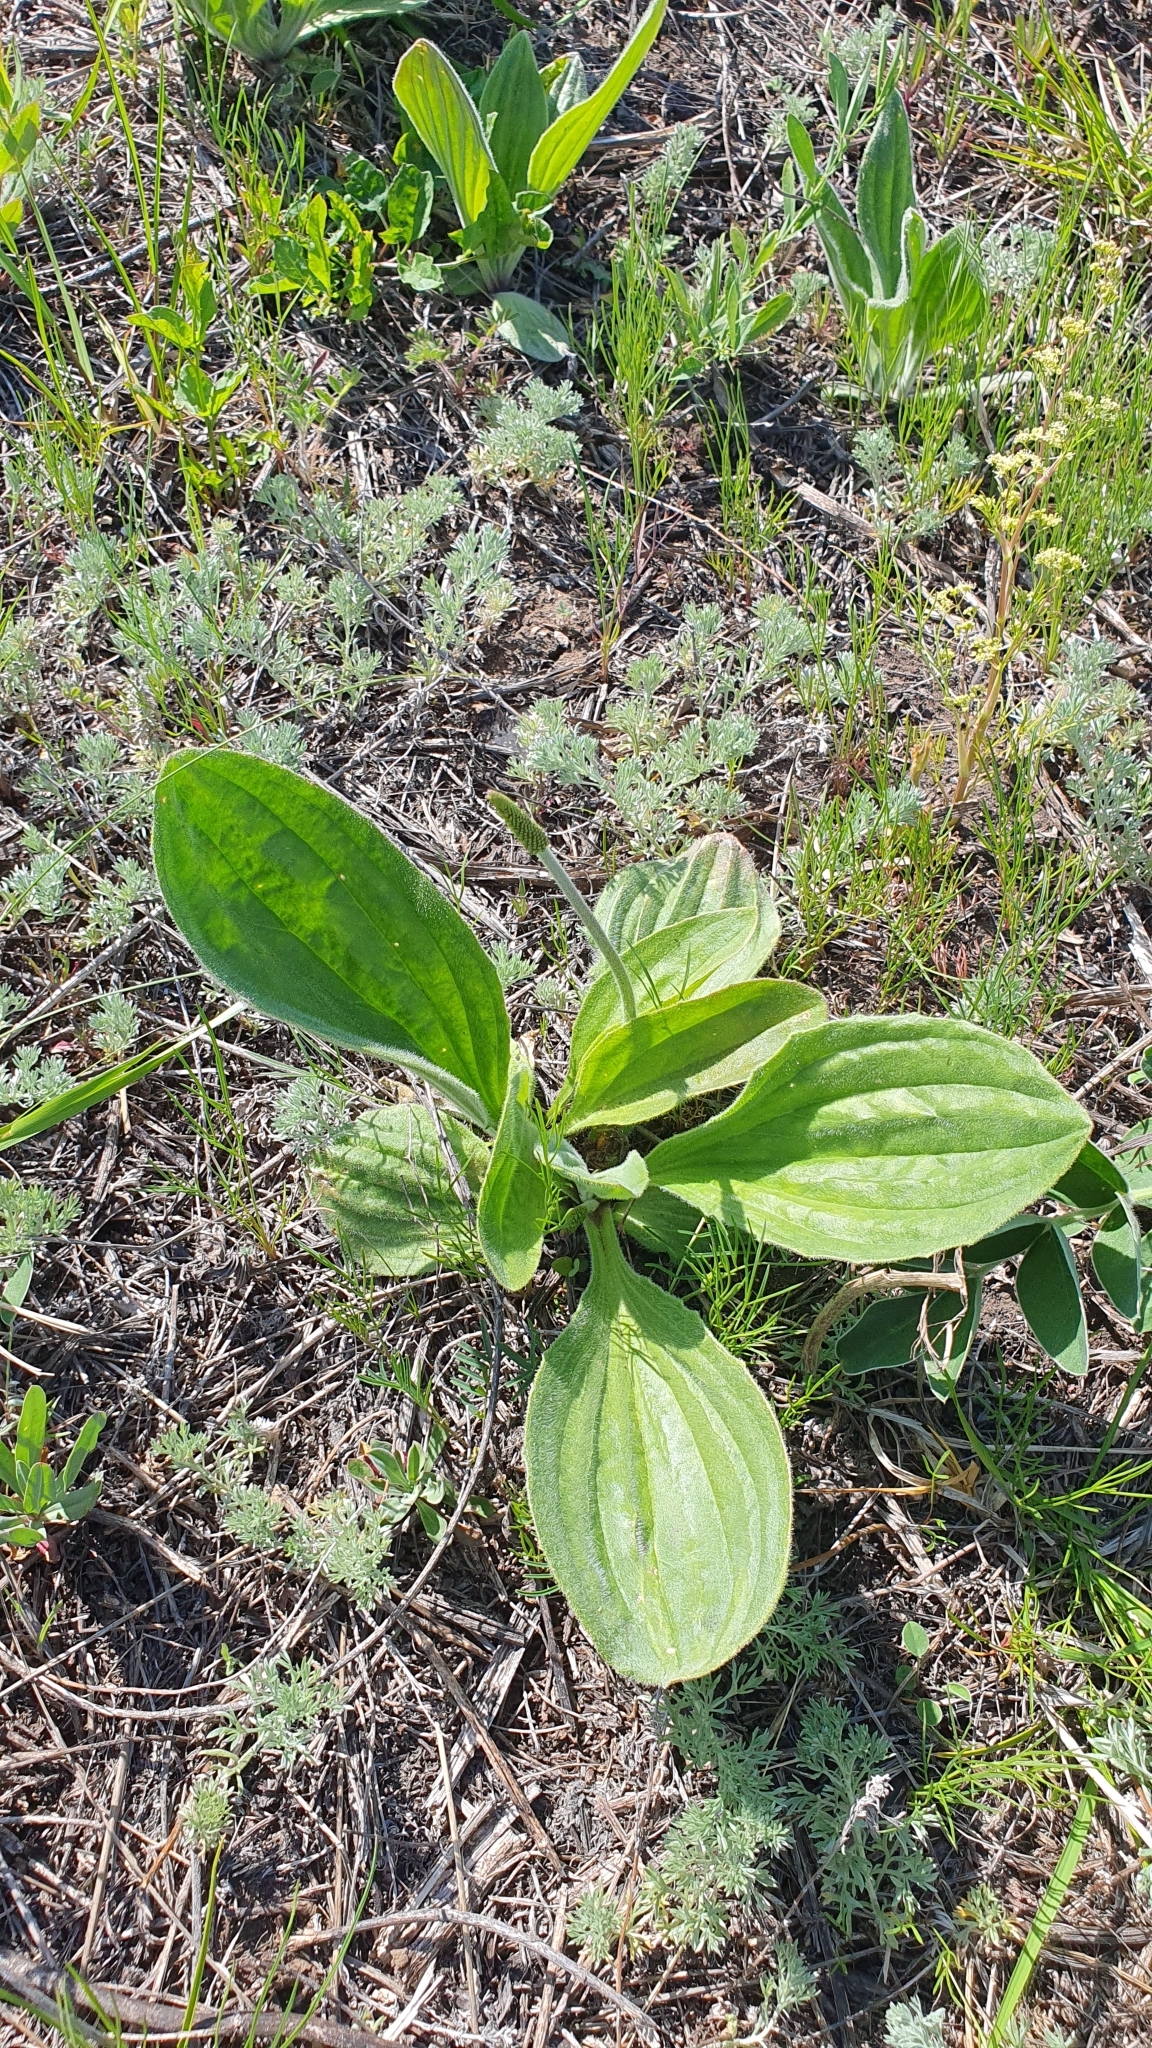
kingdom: Plantae
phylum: Tracheophyta
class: Magnoliopsida
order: Lamiales
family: Plantaginaceae
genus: Plantago
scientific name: Plantago urvillei
